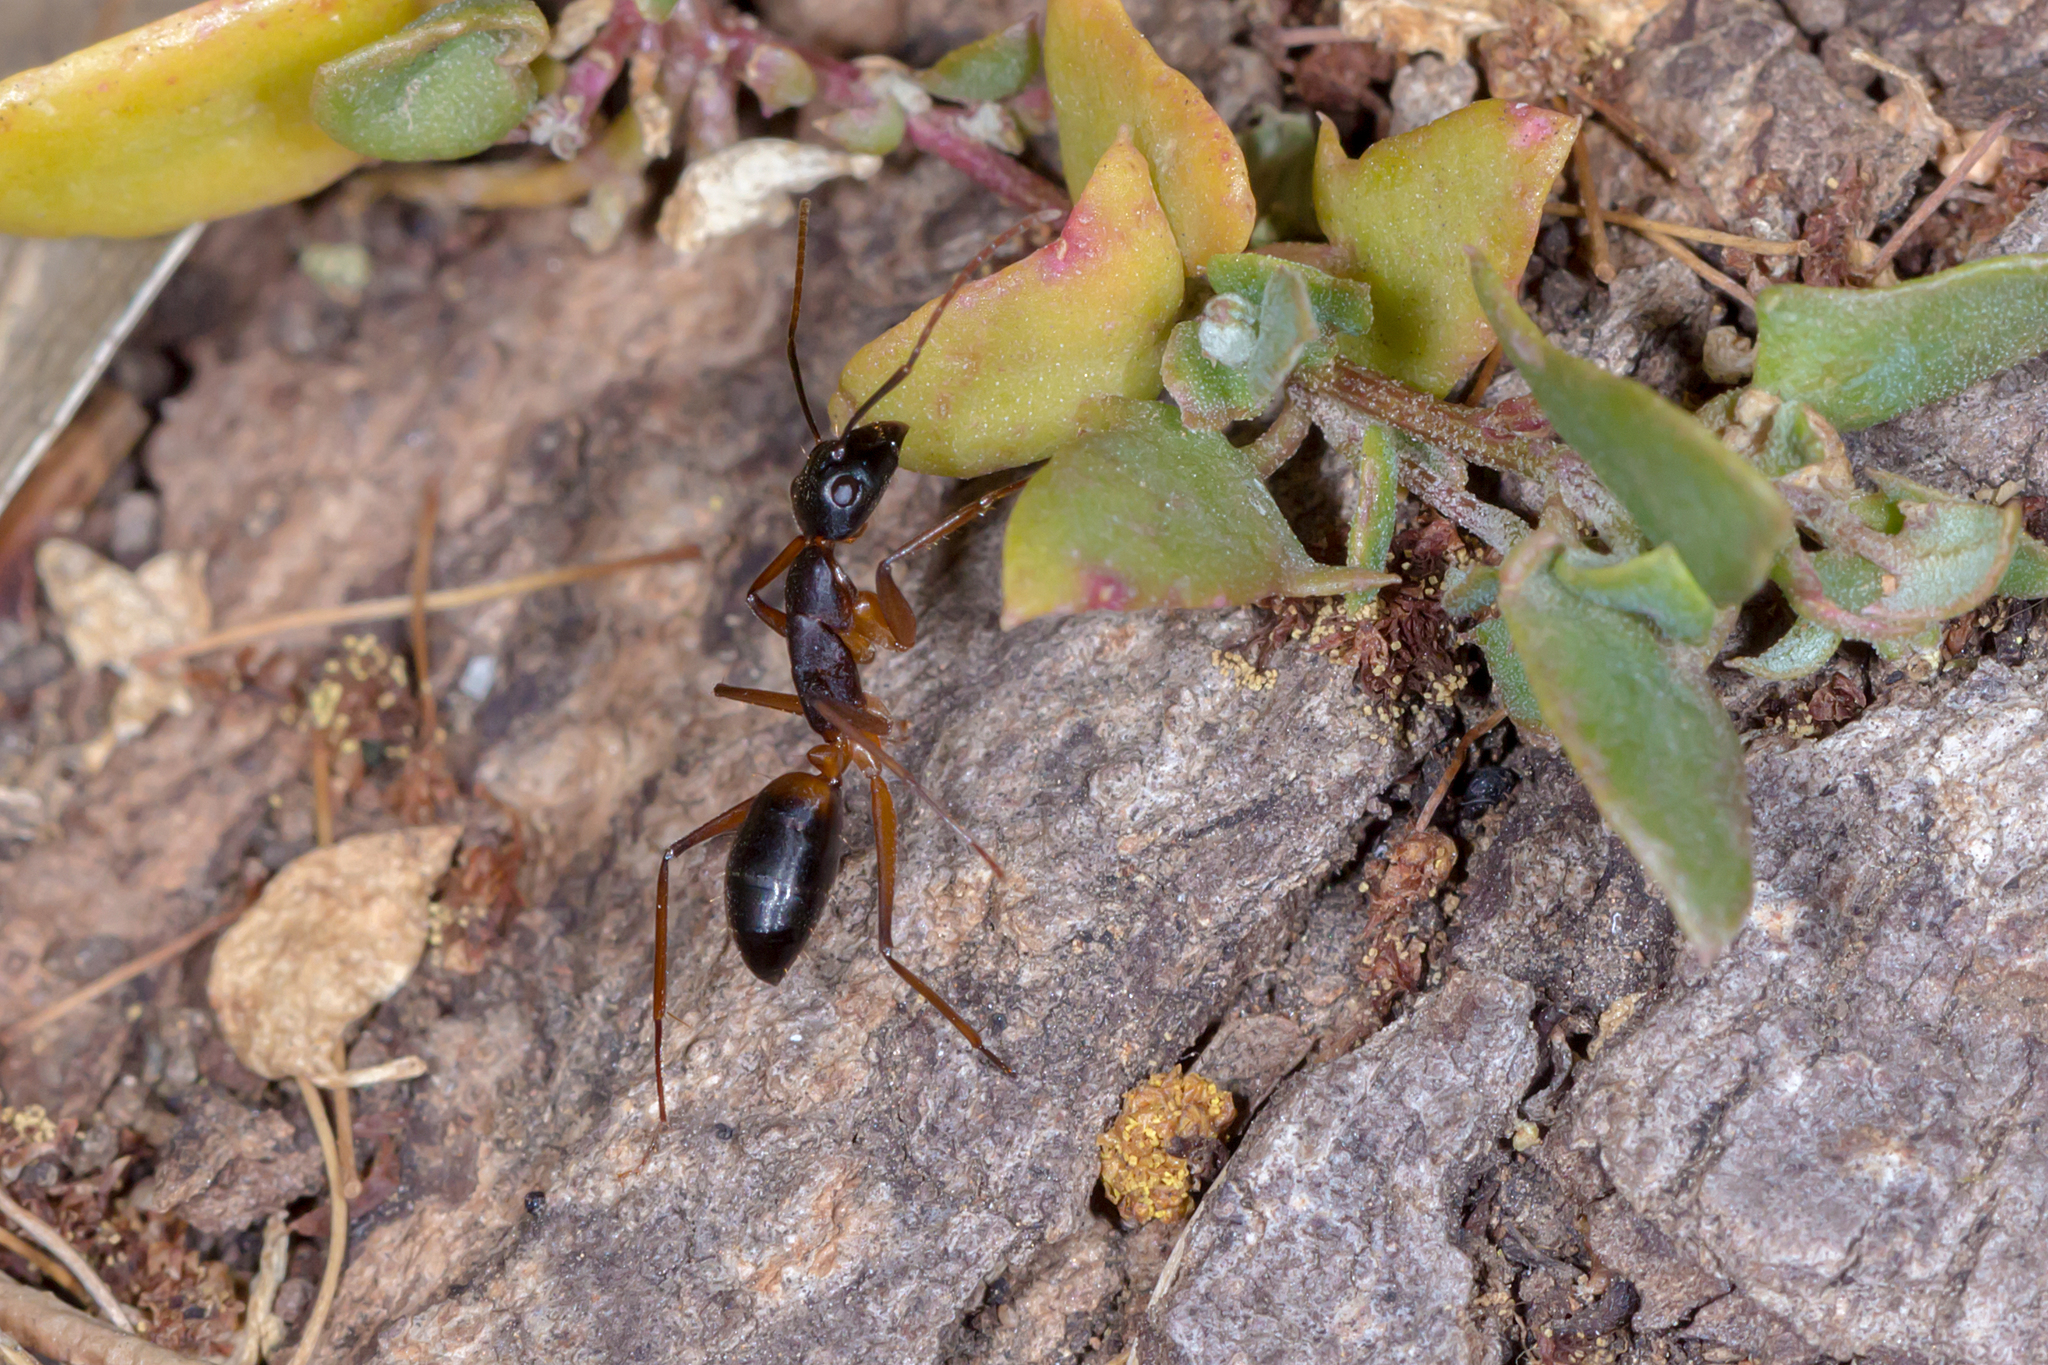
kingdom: Animalia
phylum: Arthropoda
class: Insecta
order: Hymenoptera
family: Formicidae
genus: Camponotus
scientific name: Camponotus consobrinus
